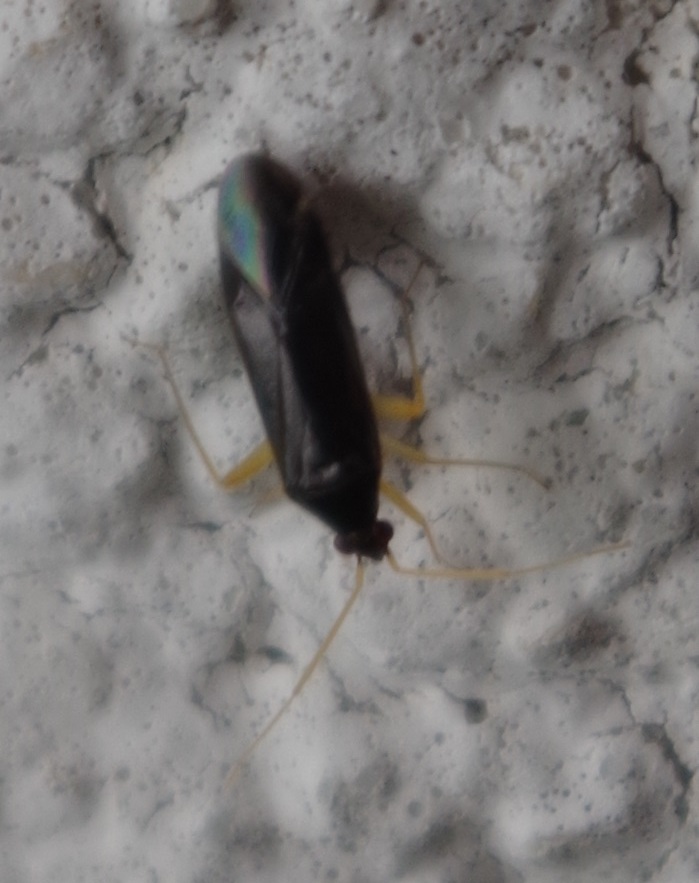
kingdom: Animalia
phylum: Arthropoda
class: Insecta
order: Hemiptera
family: Miridae
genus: Phylus
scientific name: Phylus coryli
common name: Plant bug
